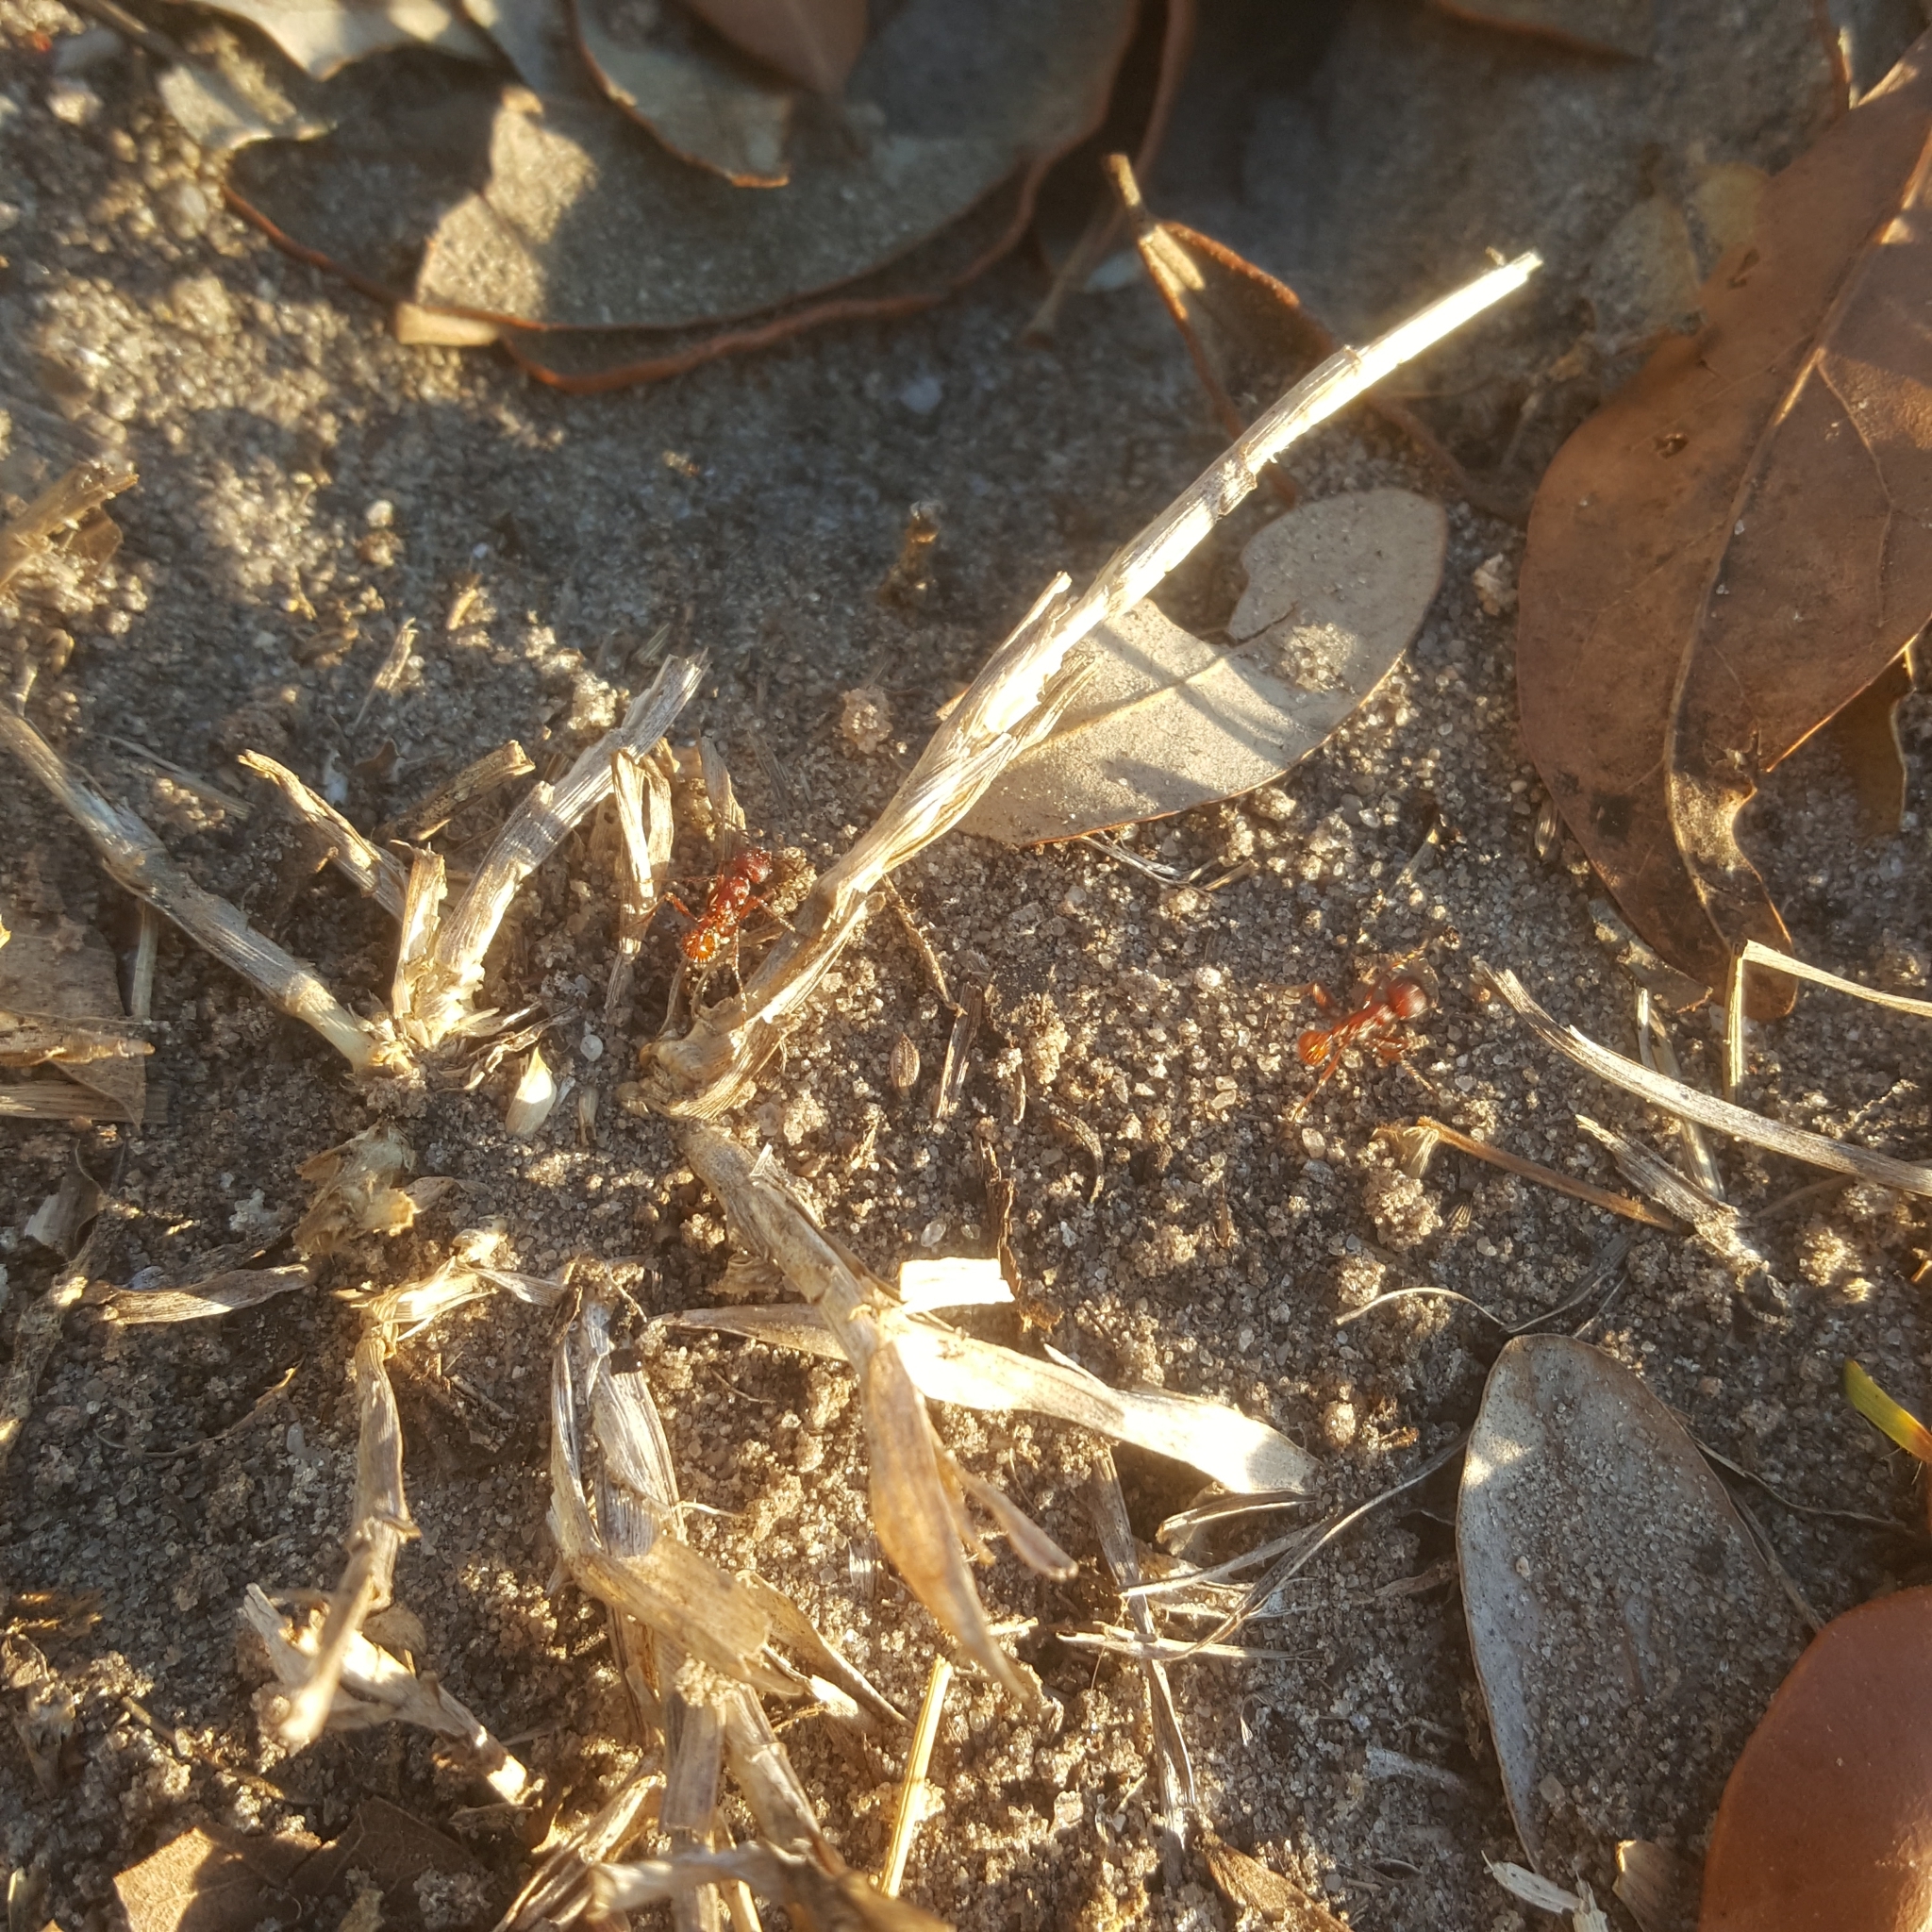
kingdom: Animalia
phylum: Arthropoda
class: Insecta
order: Hymenoptera
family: Formicidae
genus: Pogonomyrmex
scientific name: Pogonomyrmex badius
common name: Florida harvester ant
